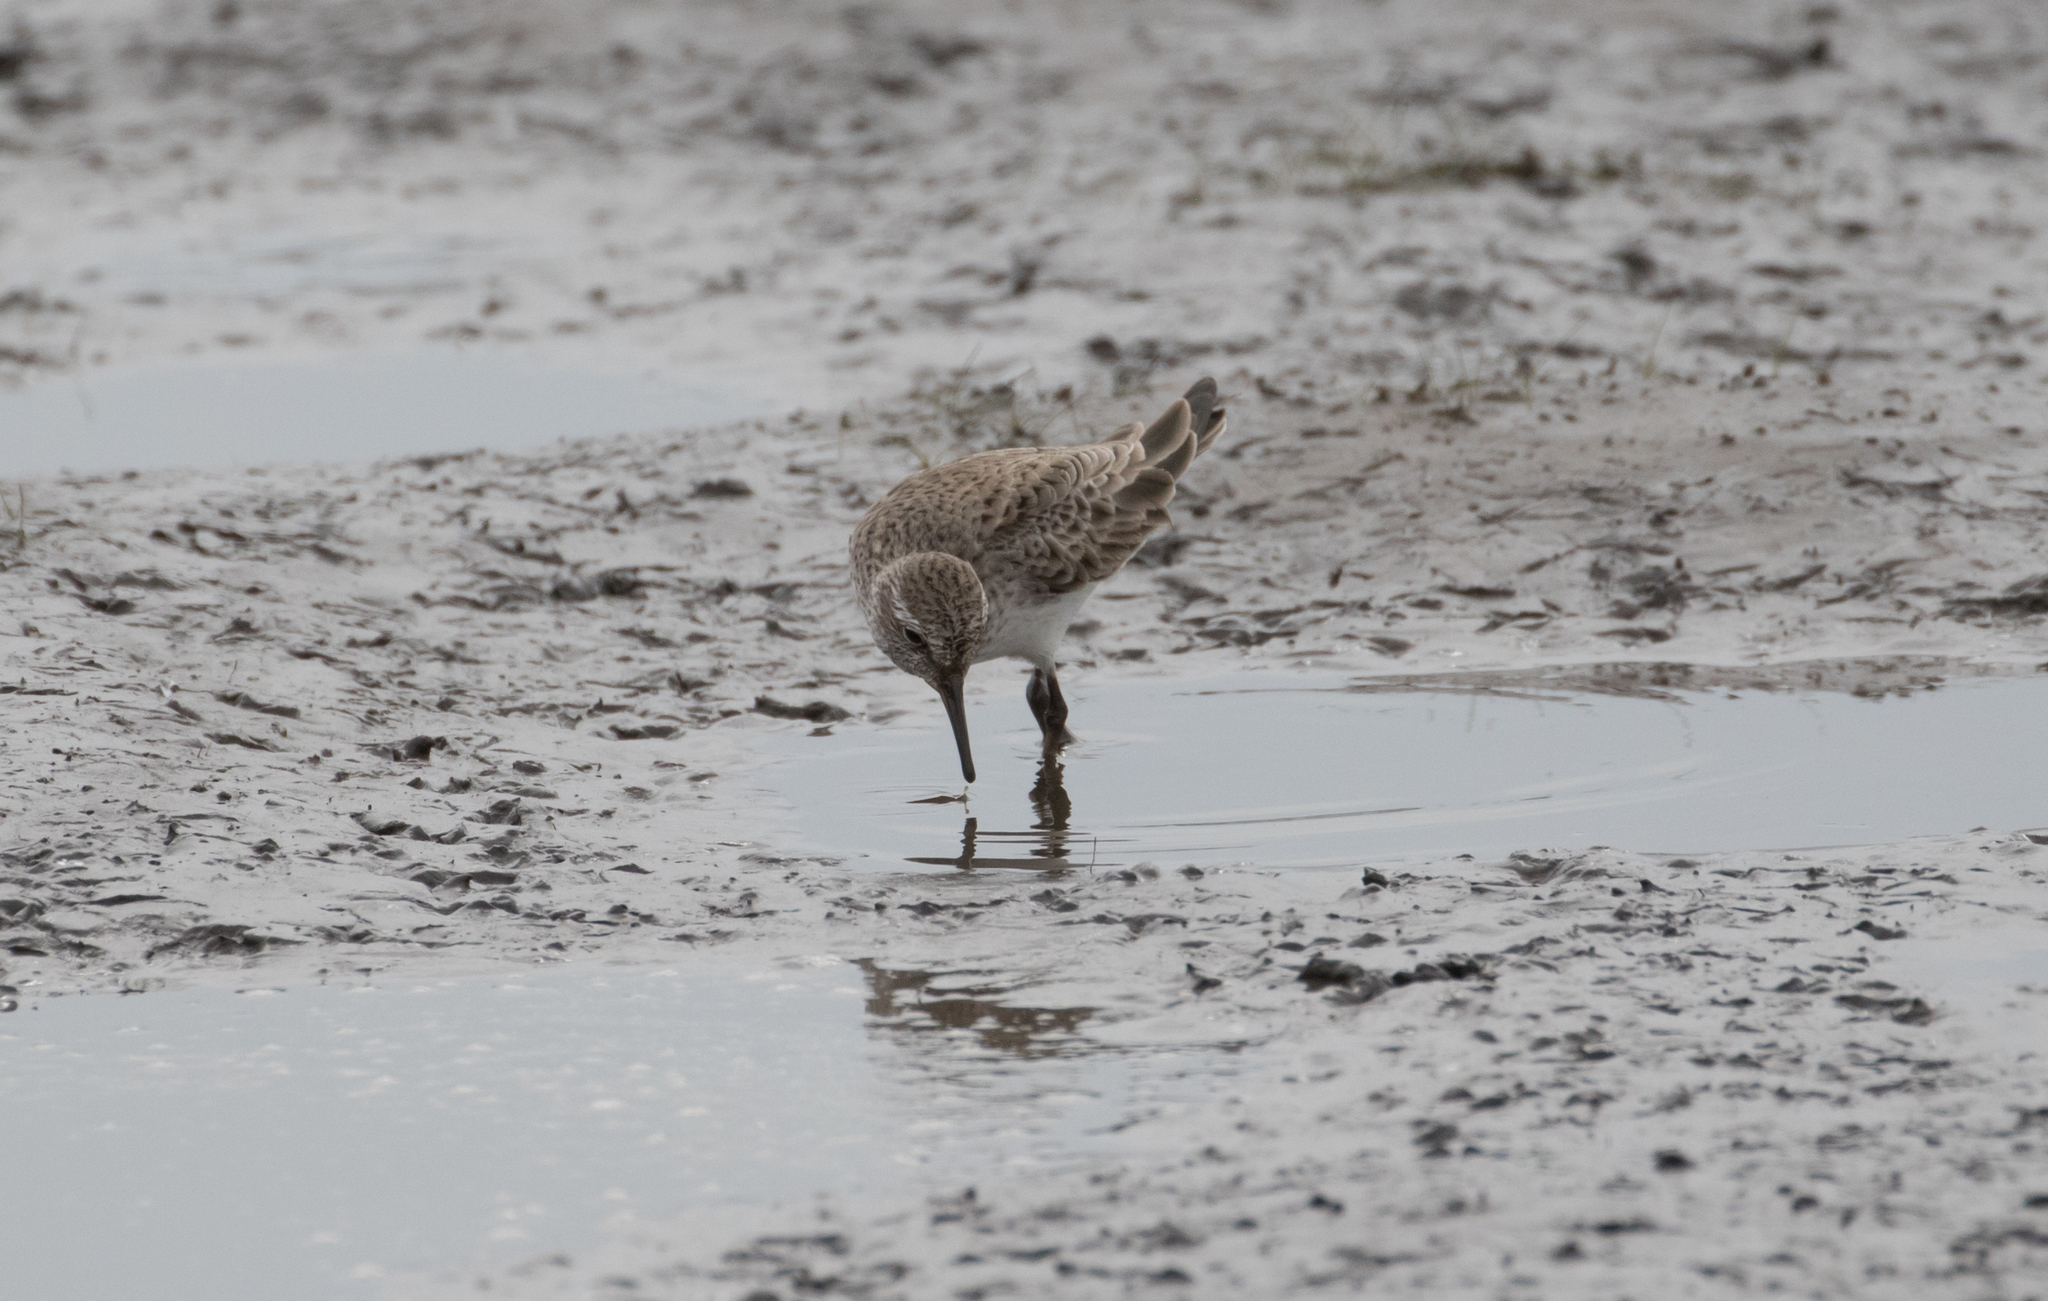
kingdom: Animalia
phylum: Chordata
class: Aves
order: Charadriiformes
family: Scolopacidae
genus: Calidris
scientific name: Calidris fuscicollis
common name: White-rumped sandpiper
